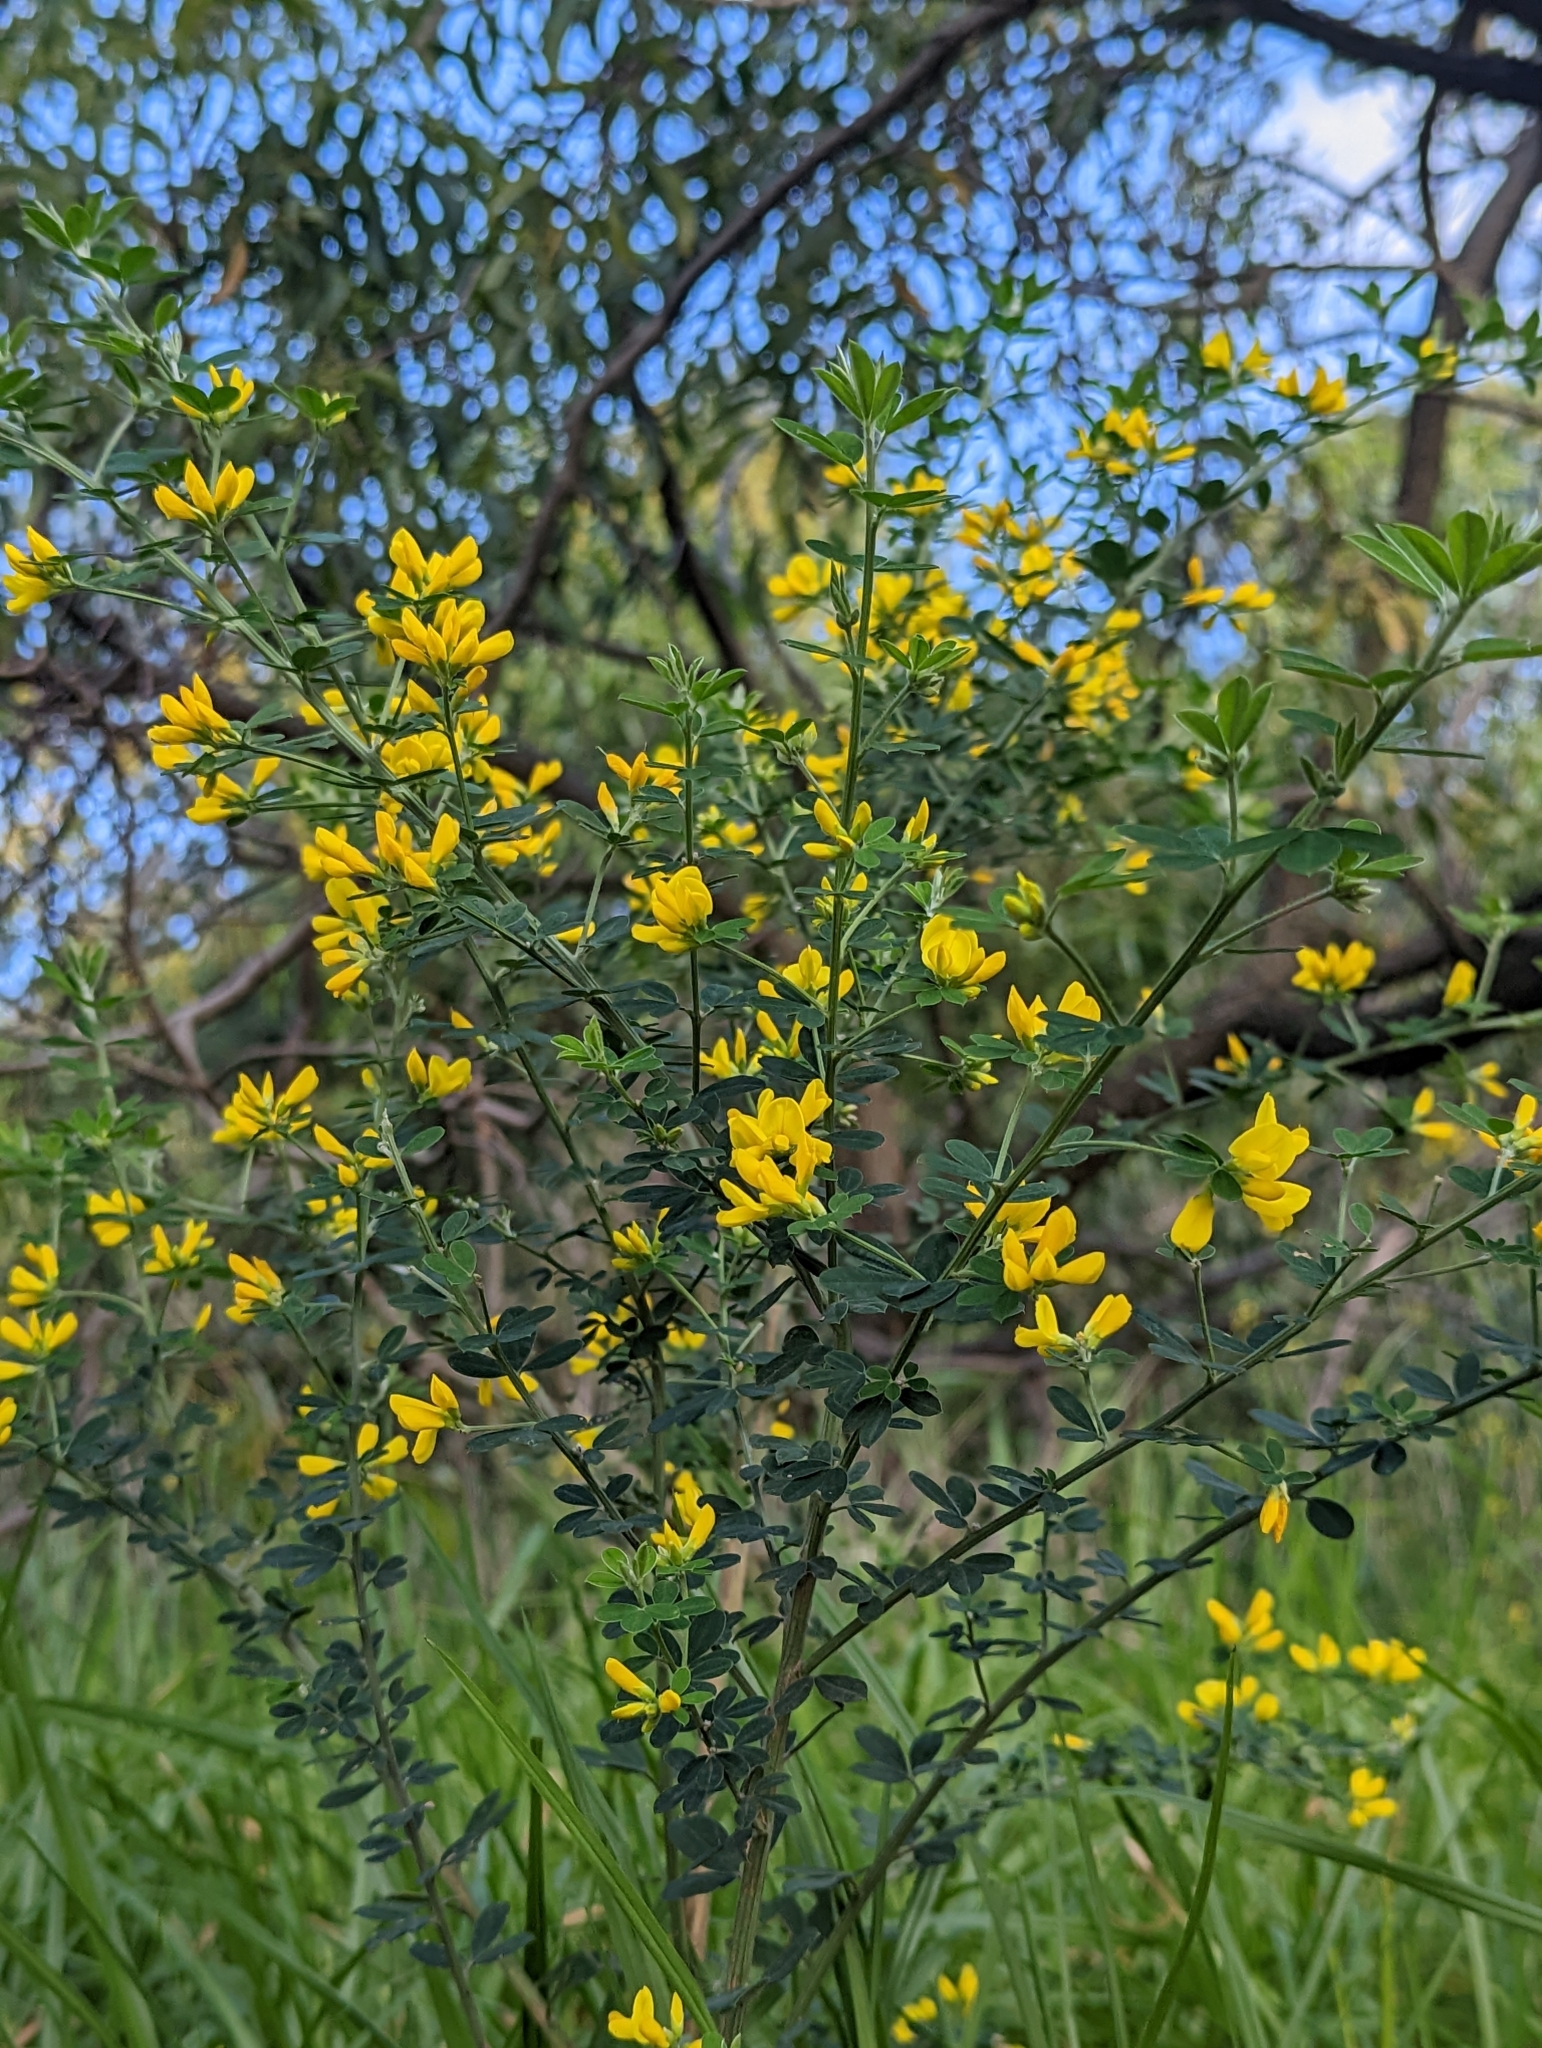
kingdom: Plantae
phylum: Tracheophyta
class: Magnoliopsida
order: Fabales
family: Fabaceae
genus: Genista
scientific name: Genista monspessulana
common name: Montpellier broom
